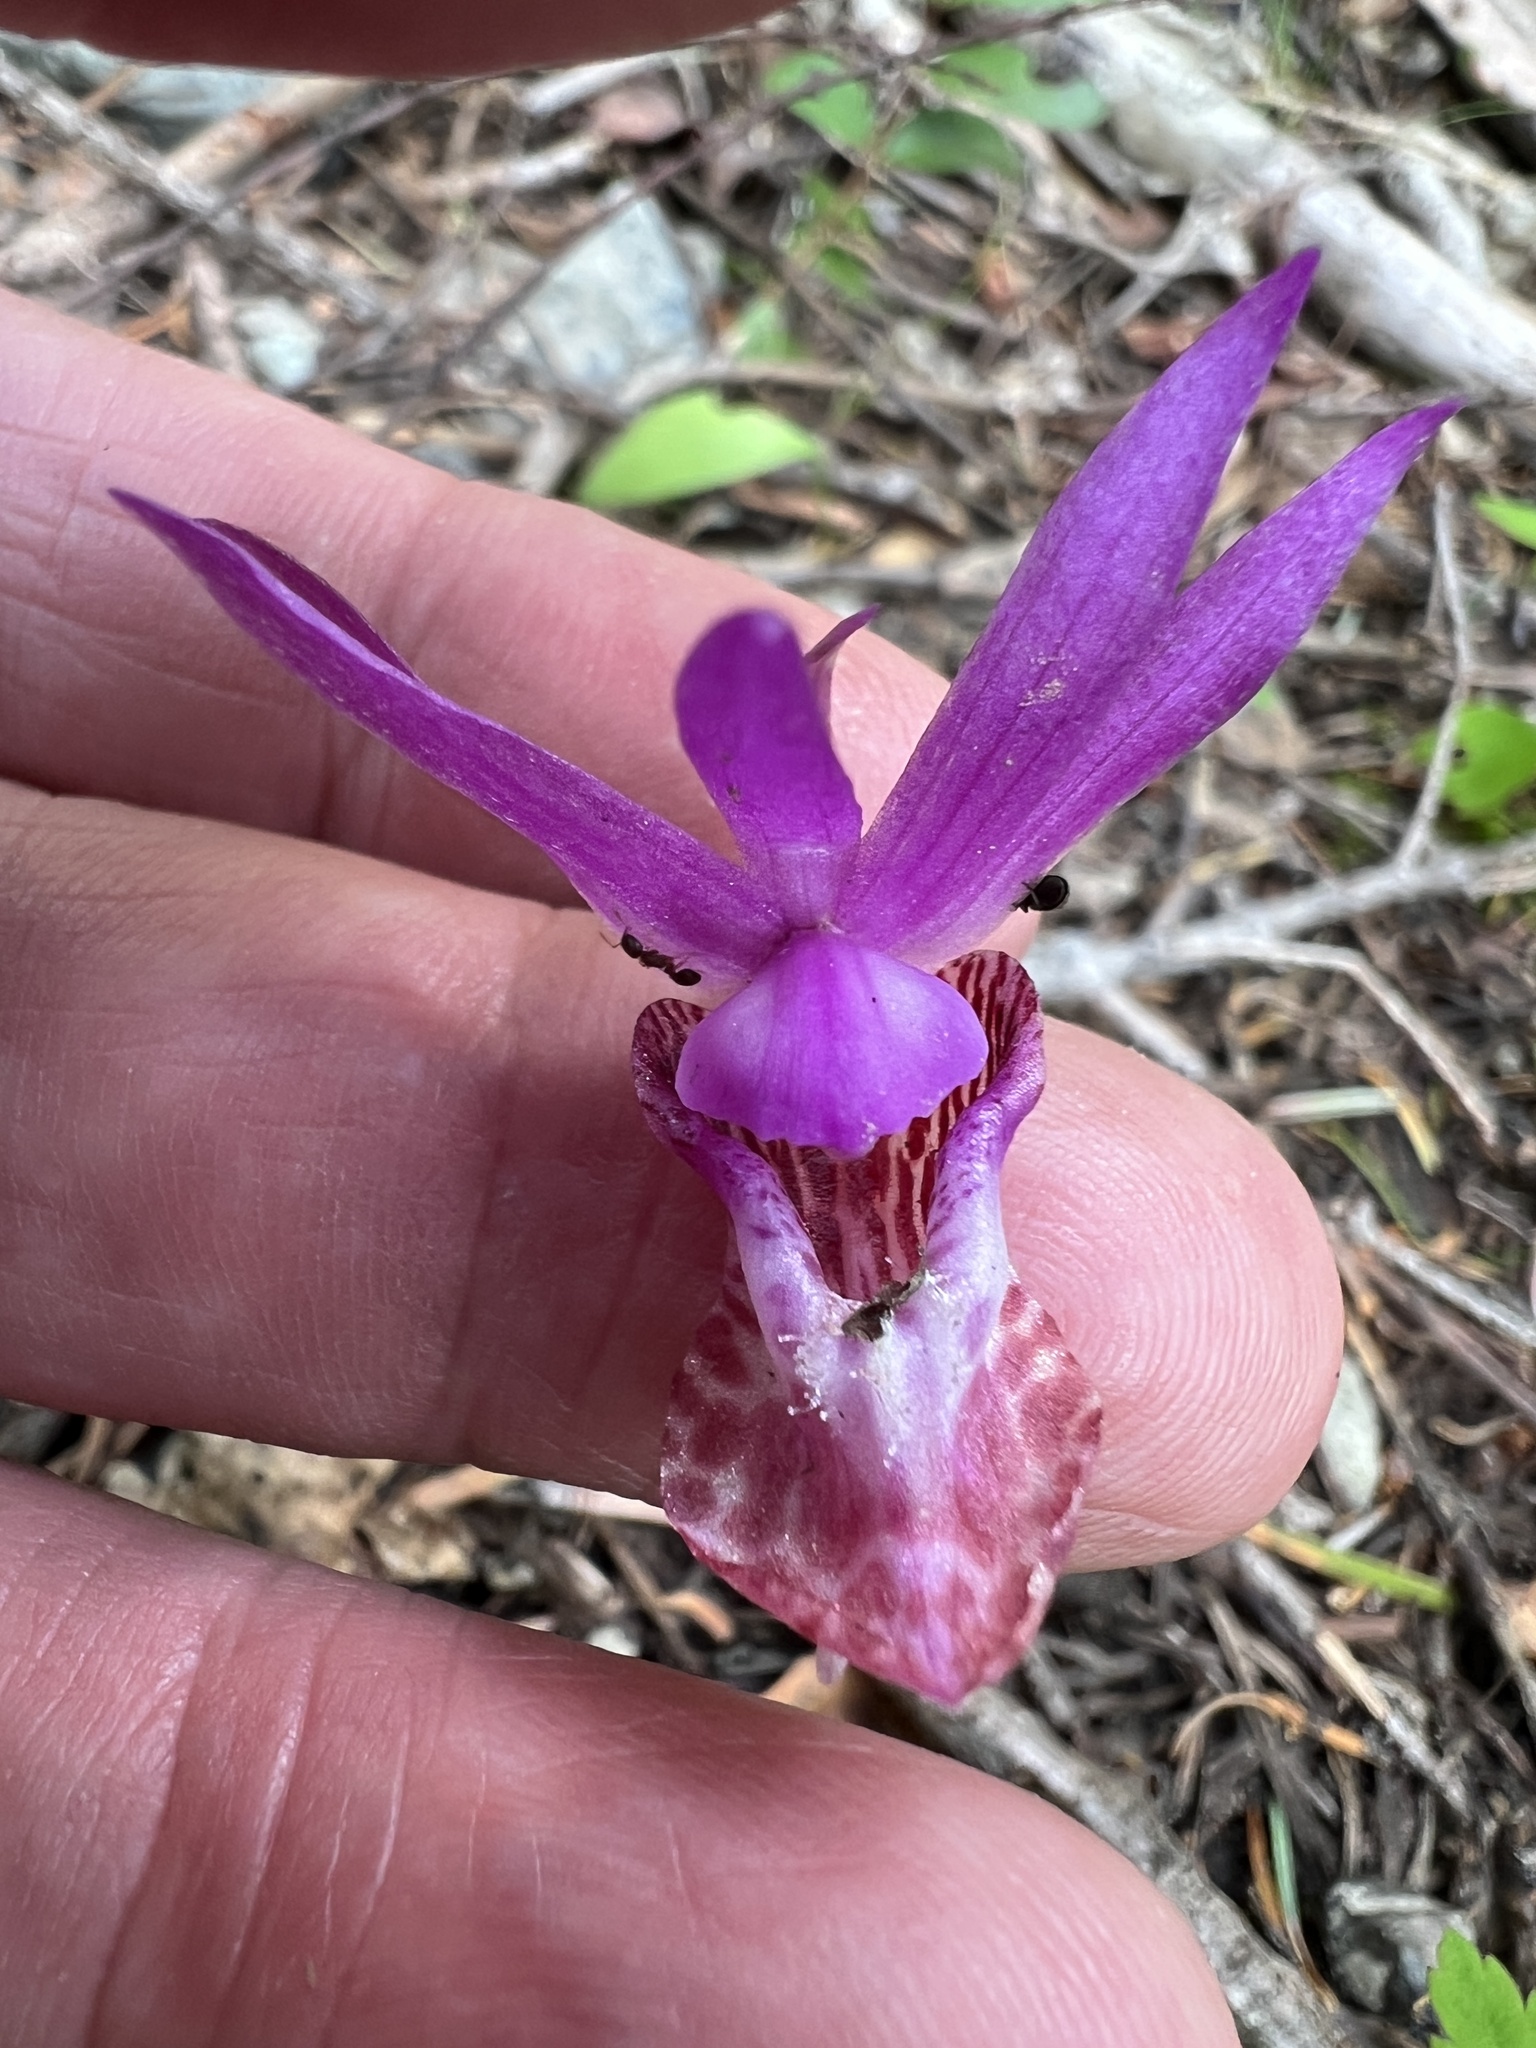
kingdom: Plantae
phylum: Tracheophyta
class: Liliopsida
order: Asparagales
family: Orchidaceae
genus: Calypso
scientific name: Calypso bulbosa
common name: Calypso
